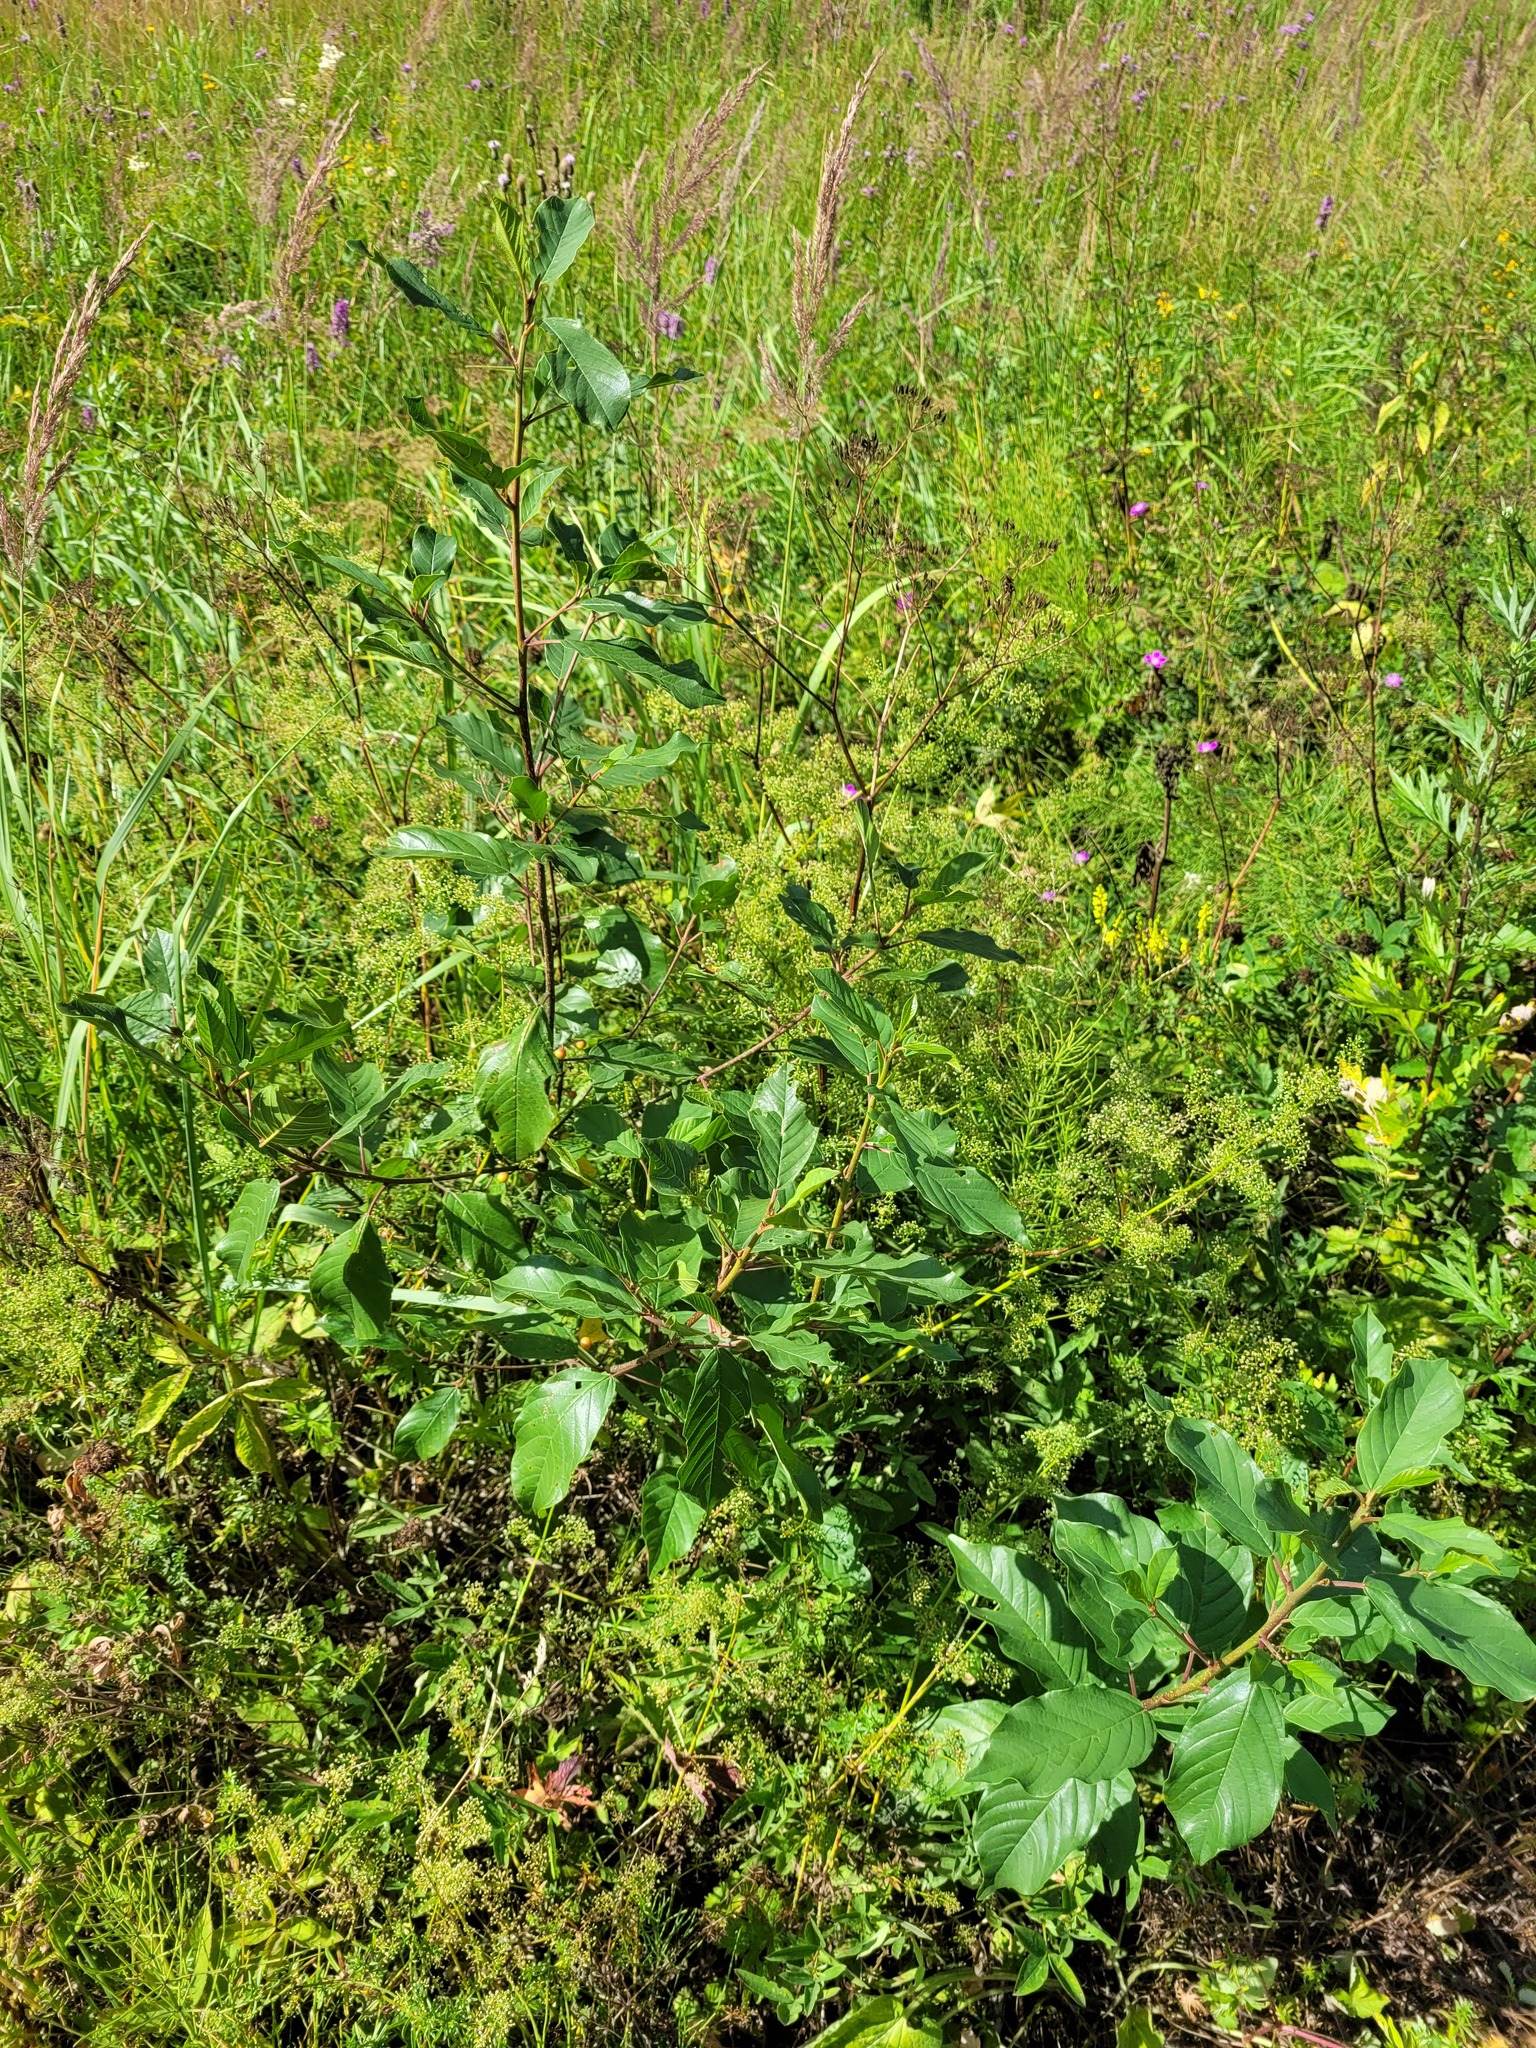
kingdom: Plantae
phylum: Tracheophyta
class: Magnoliopsida
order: Rosales
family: Rhamnaceae
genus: Frangula
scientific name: Frangula alnus
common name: Alder buckthorn
